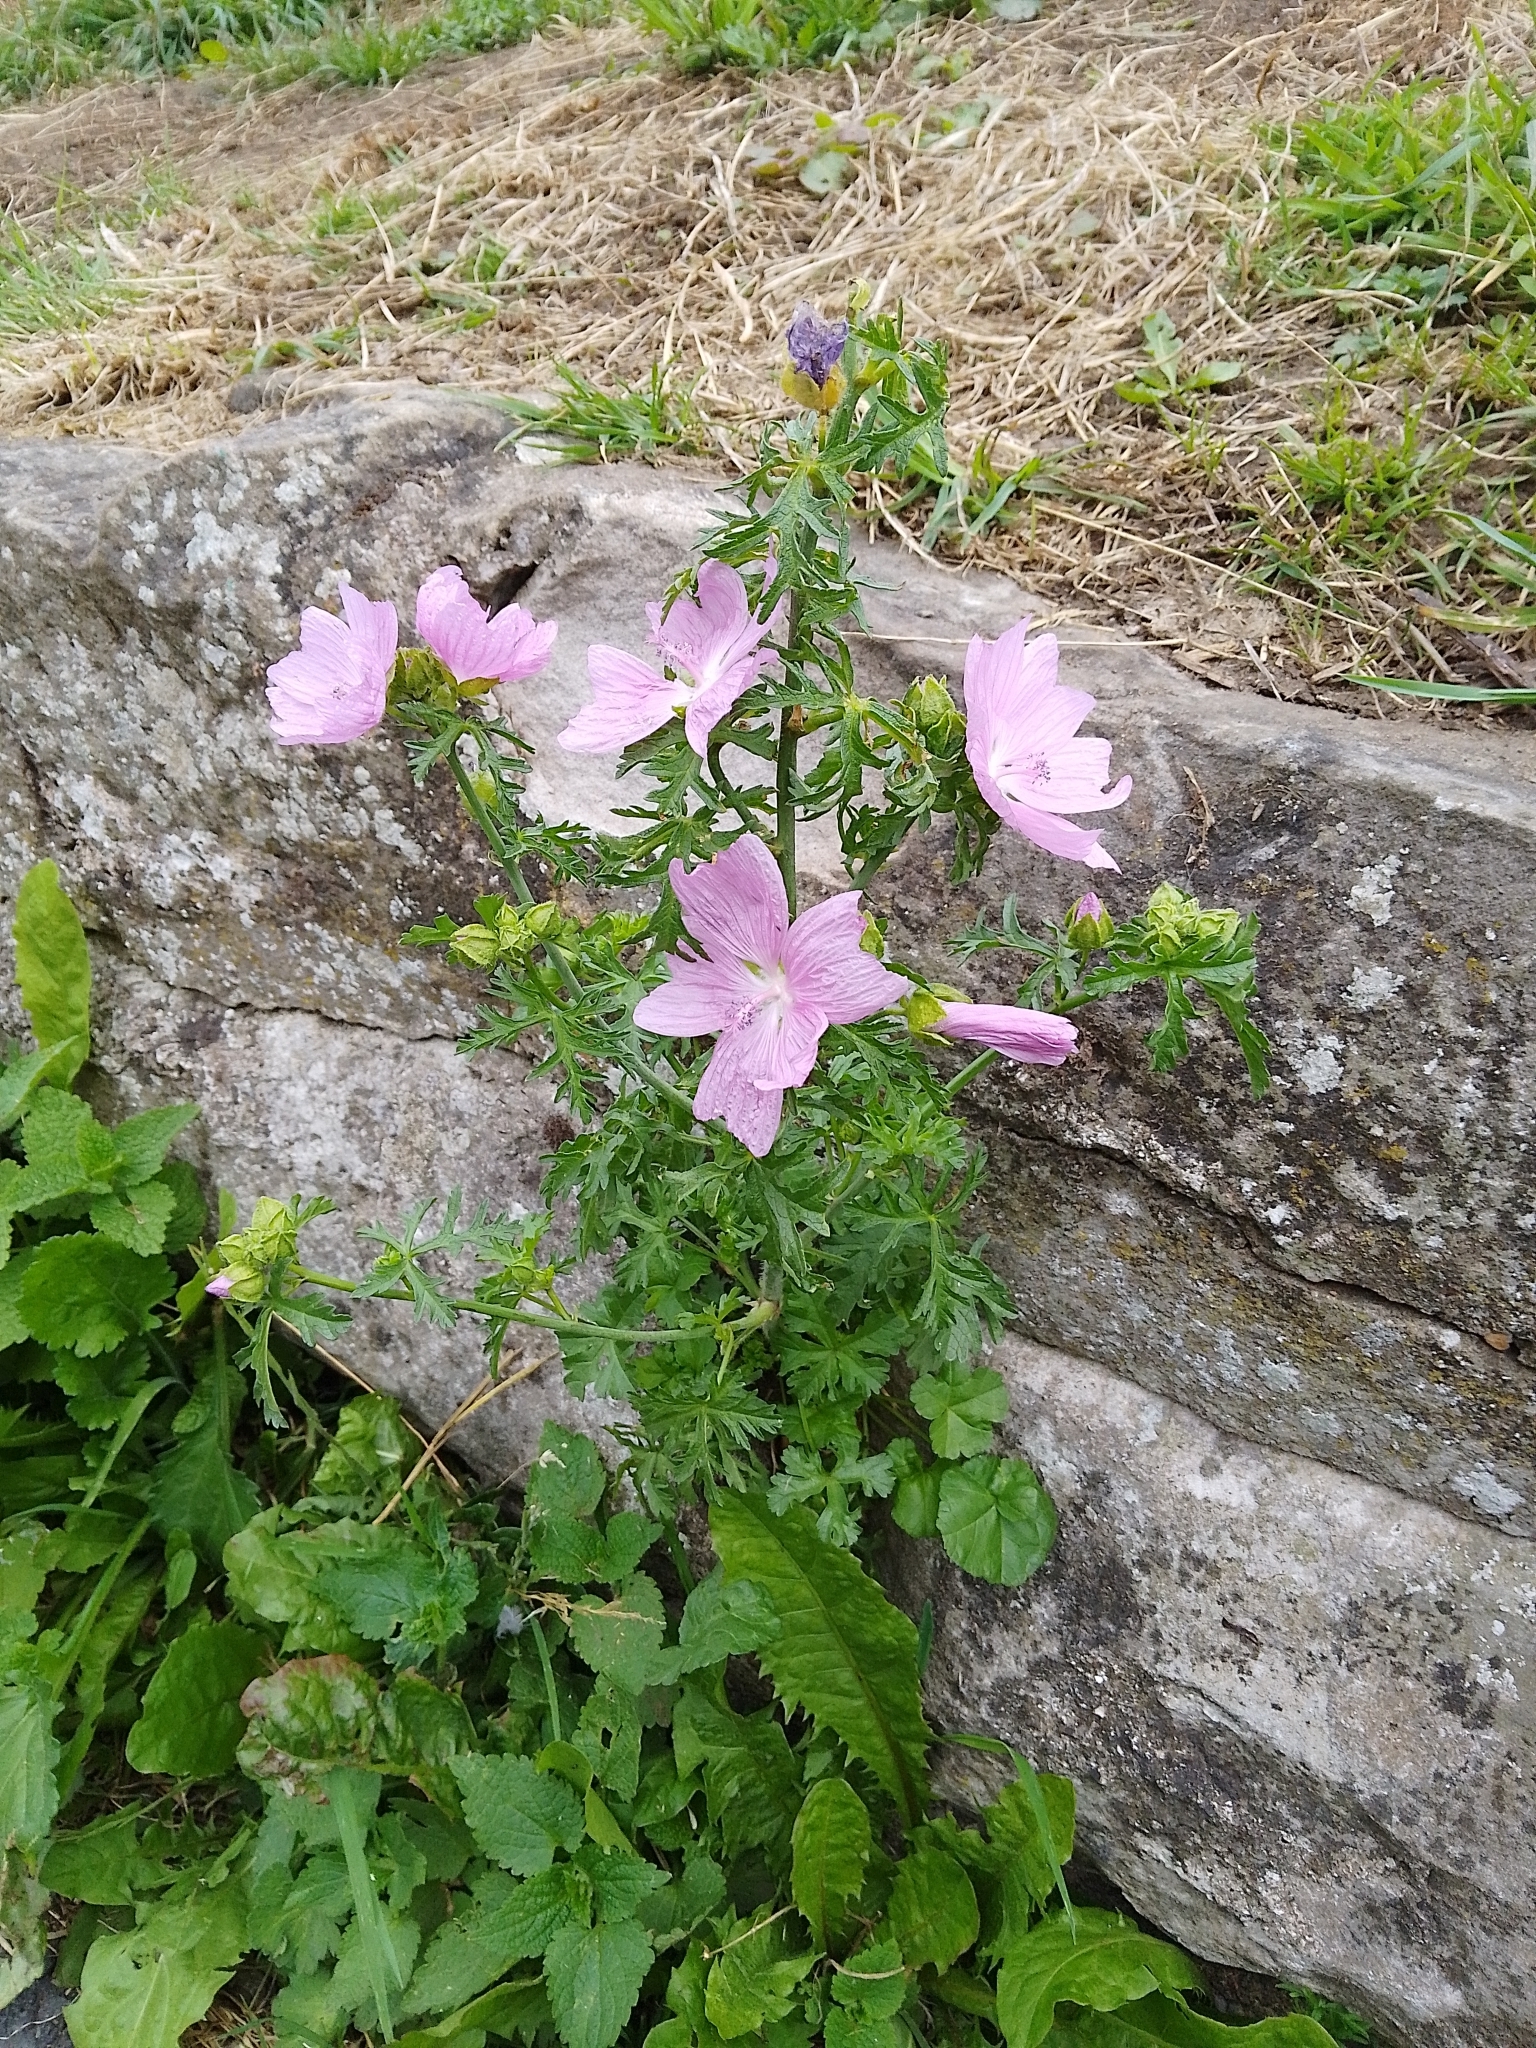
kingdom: Plantae
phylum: Tracheophyta
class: Magnoliopsida
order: Malvales
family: Malvaceae
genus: Malva
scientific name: Malva moschata
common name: Musk mallow
